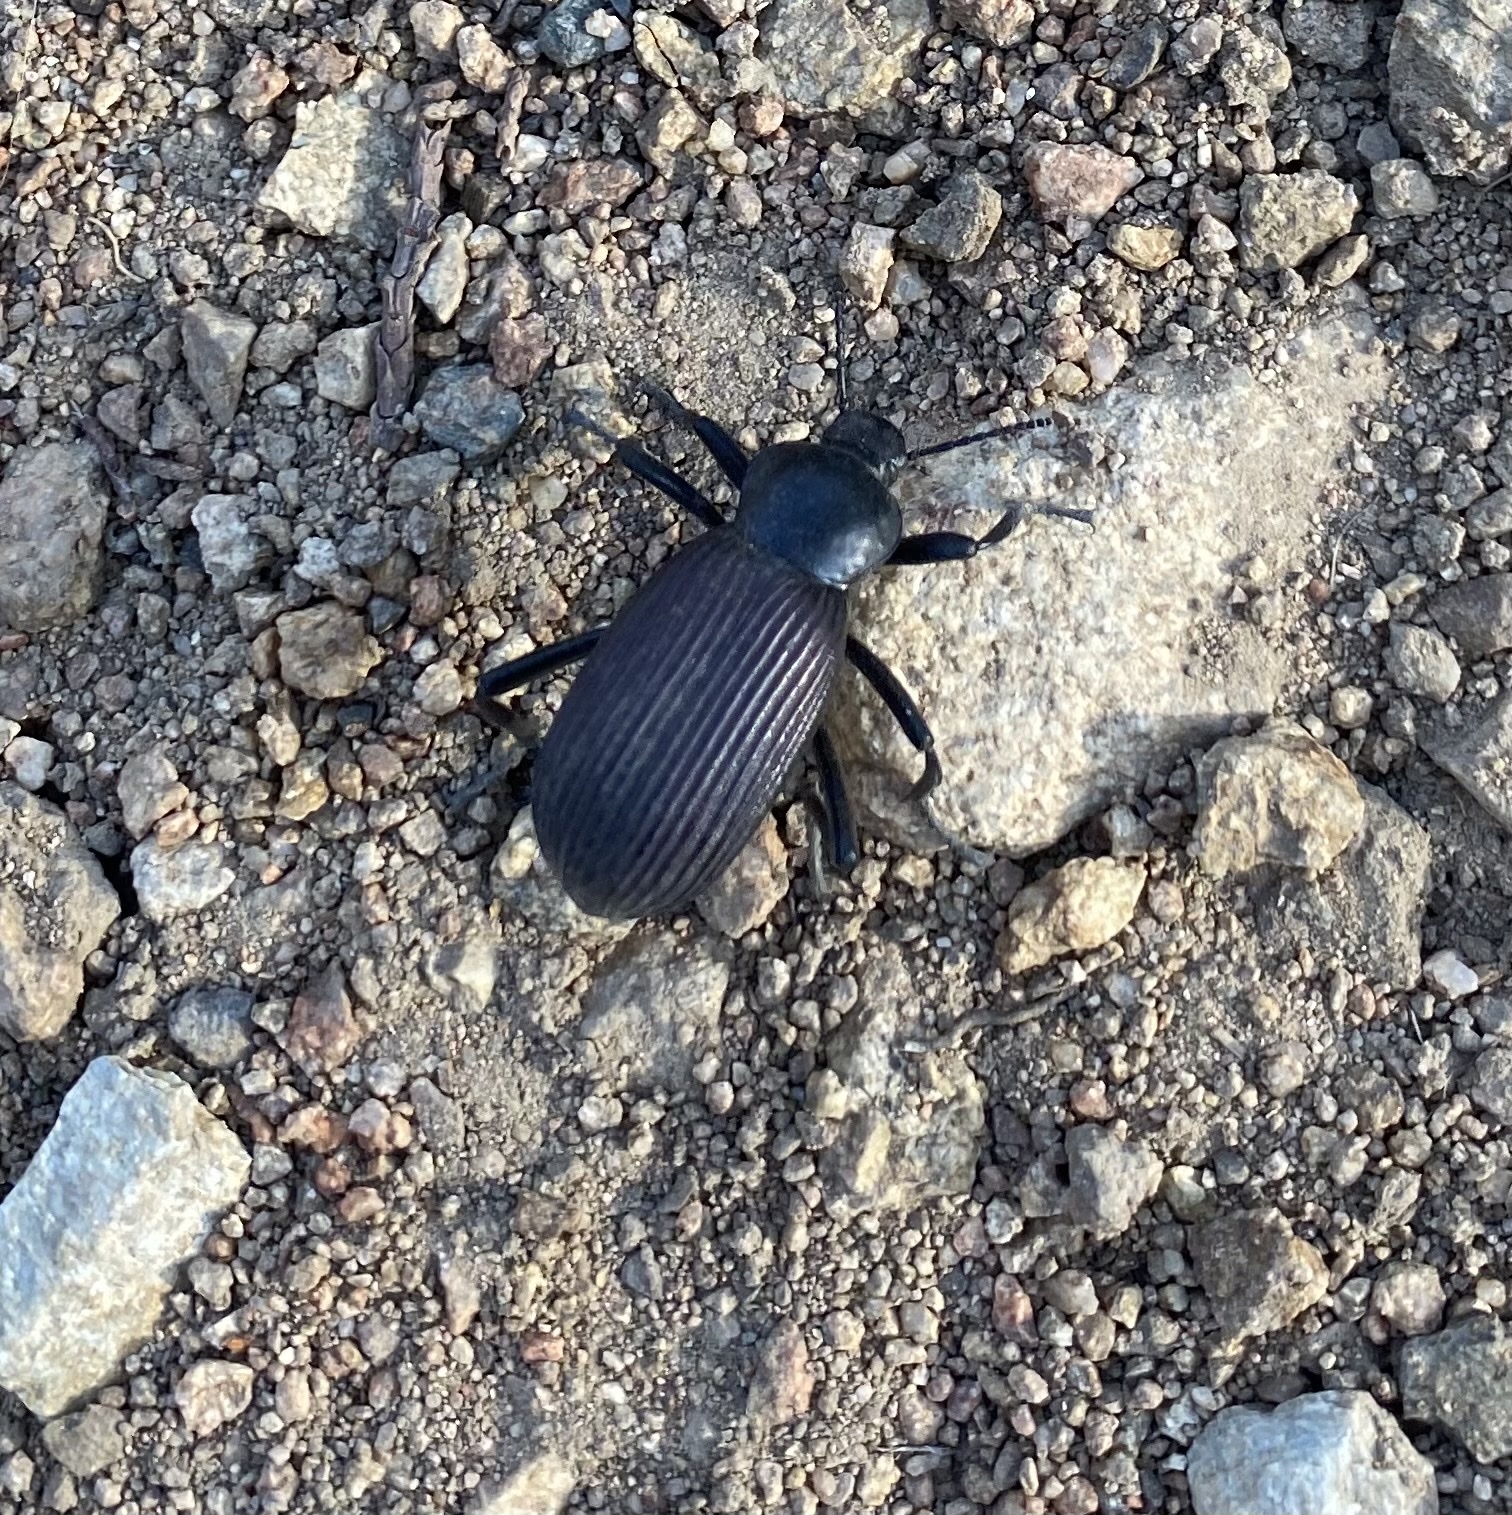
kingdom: Animalia
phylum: Arthropoda
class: Insecta
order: Coleoptera
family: Tenebrionidae
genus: Eleodes
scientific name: Eleodes obscura
